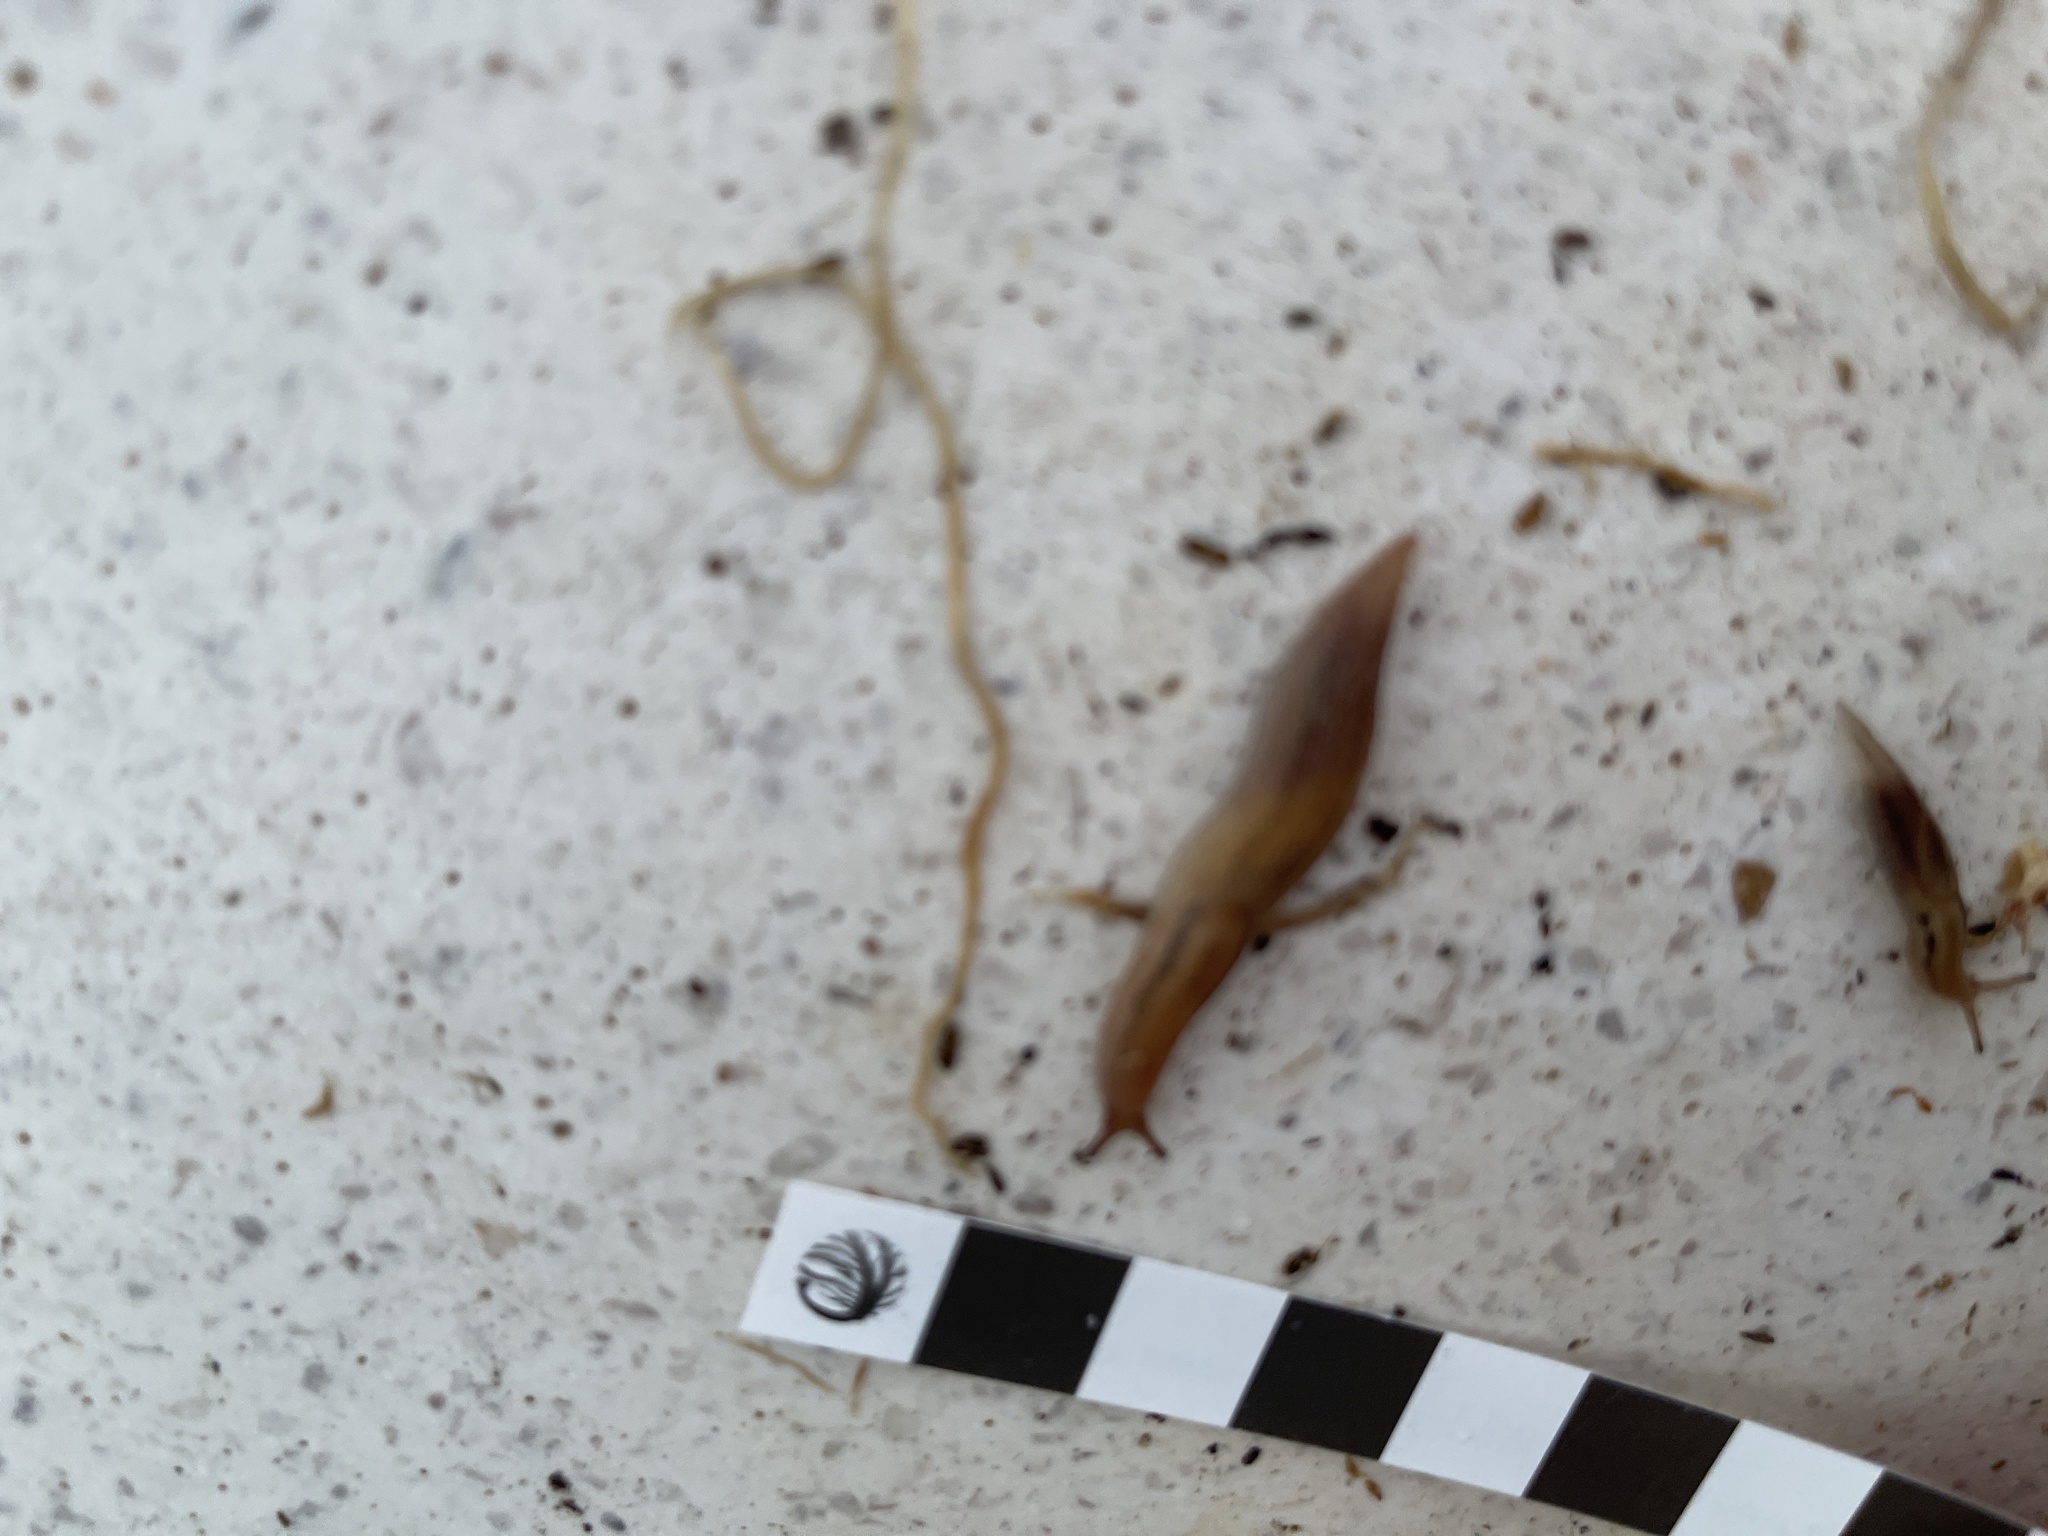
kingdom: Animalia
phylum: Mollusca
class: Gastropoda
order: Stylommatophora
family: Limacidae
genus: Ambigolimax
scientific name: Ambigolimax
